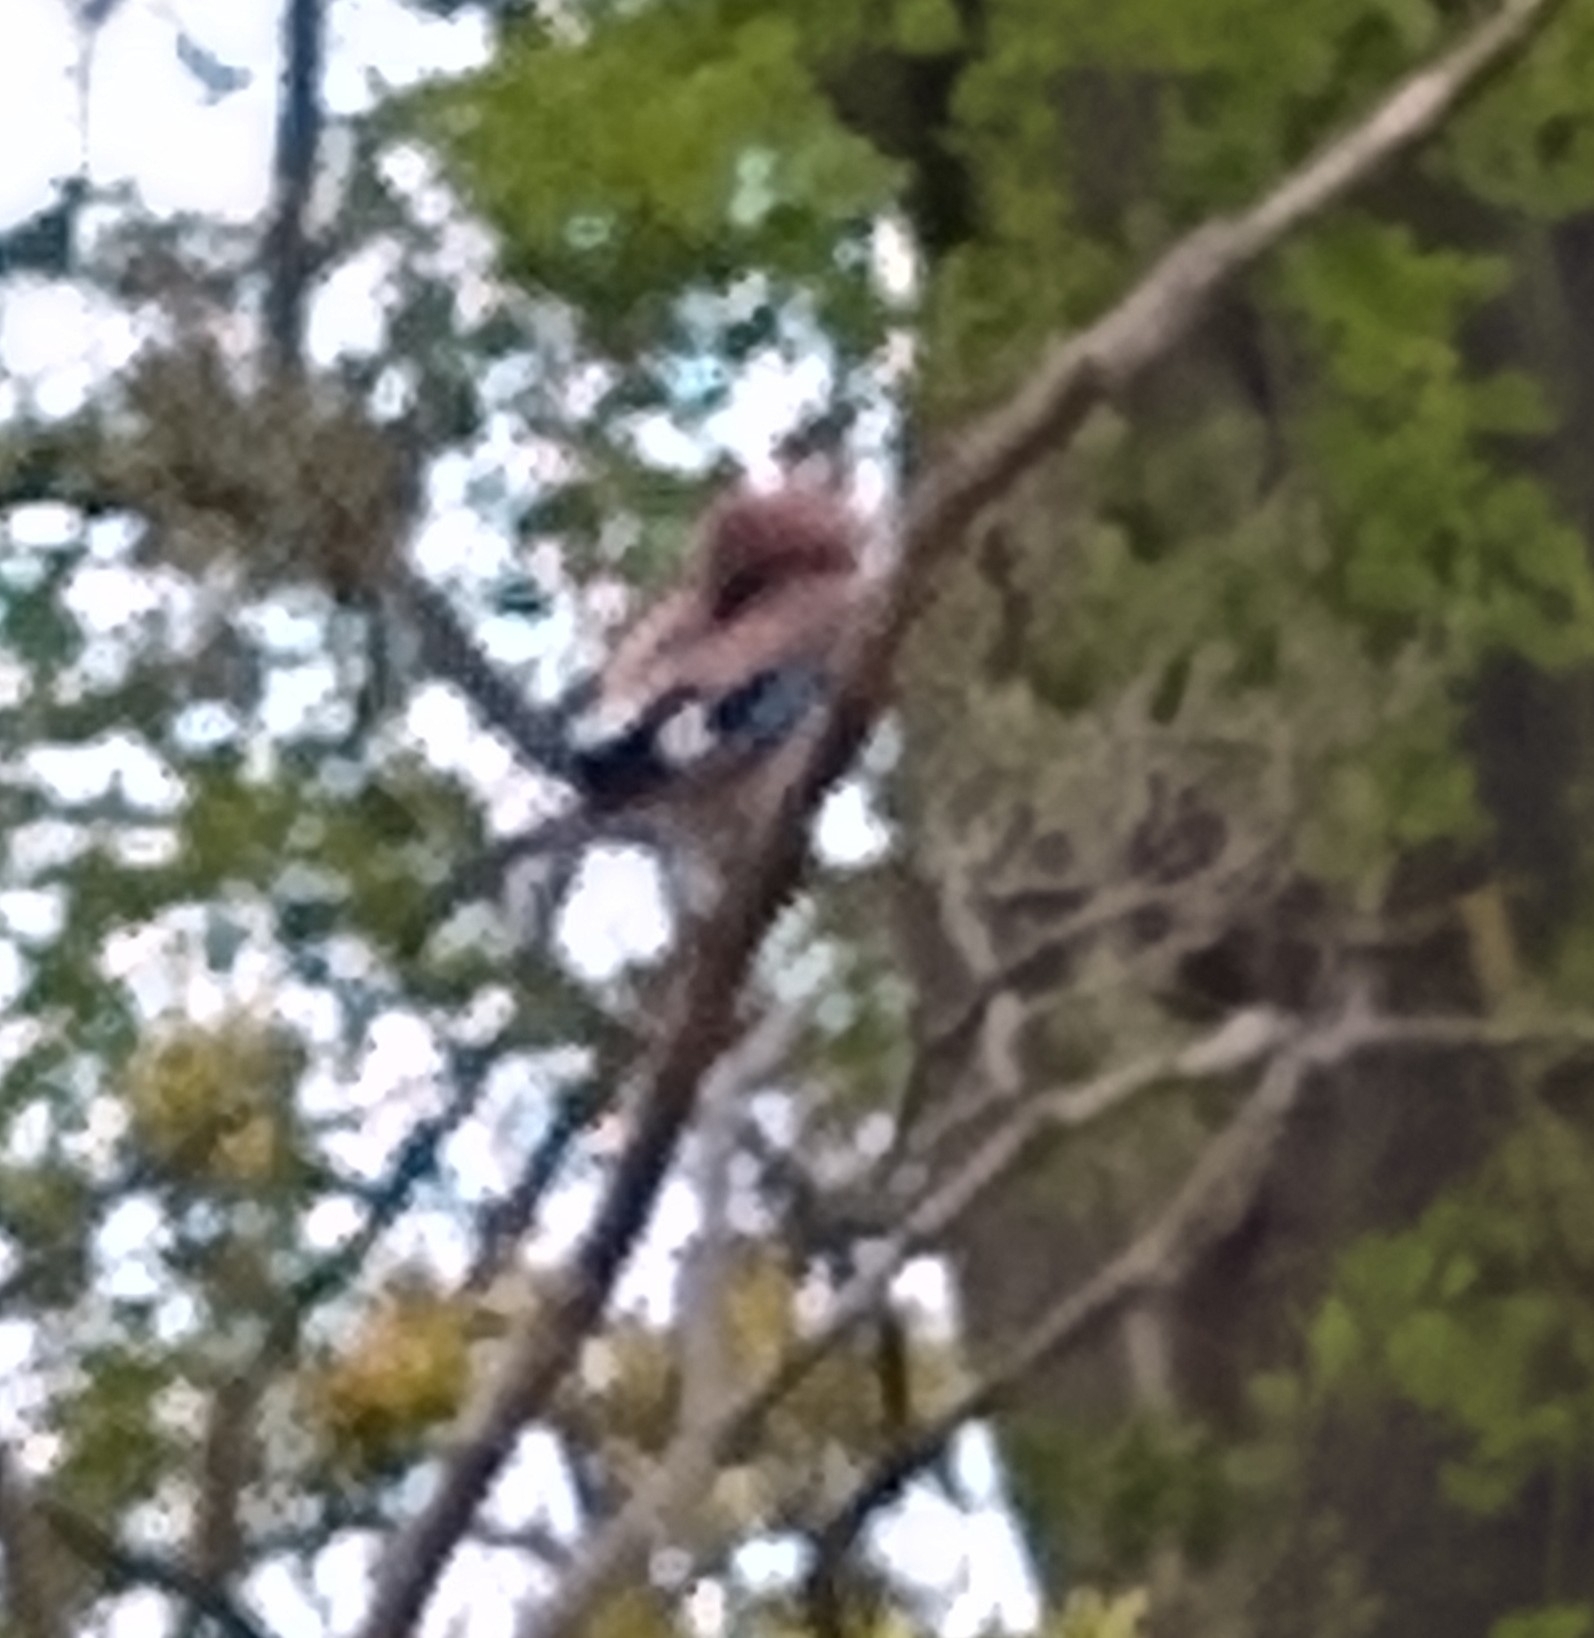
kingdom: Animalia
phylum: Chordata
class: Aves
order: Passeriformes
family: Corvidae
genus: Garrulus
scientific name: Garrulus glandarius
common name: Eurasian jay
